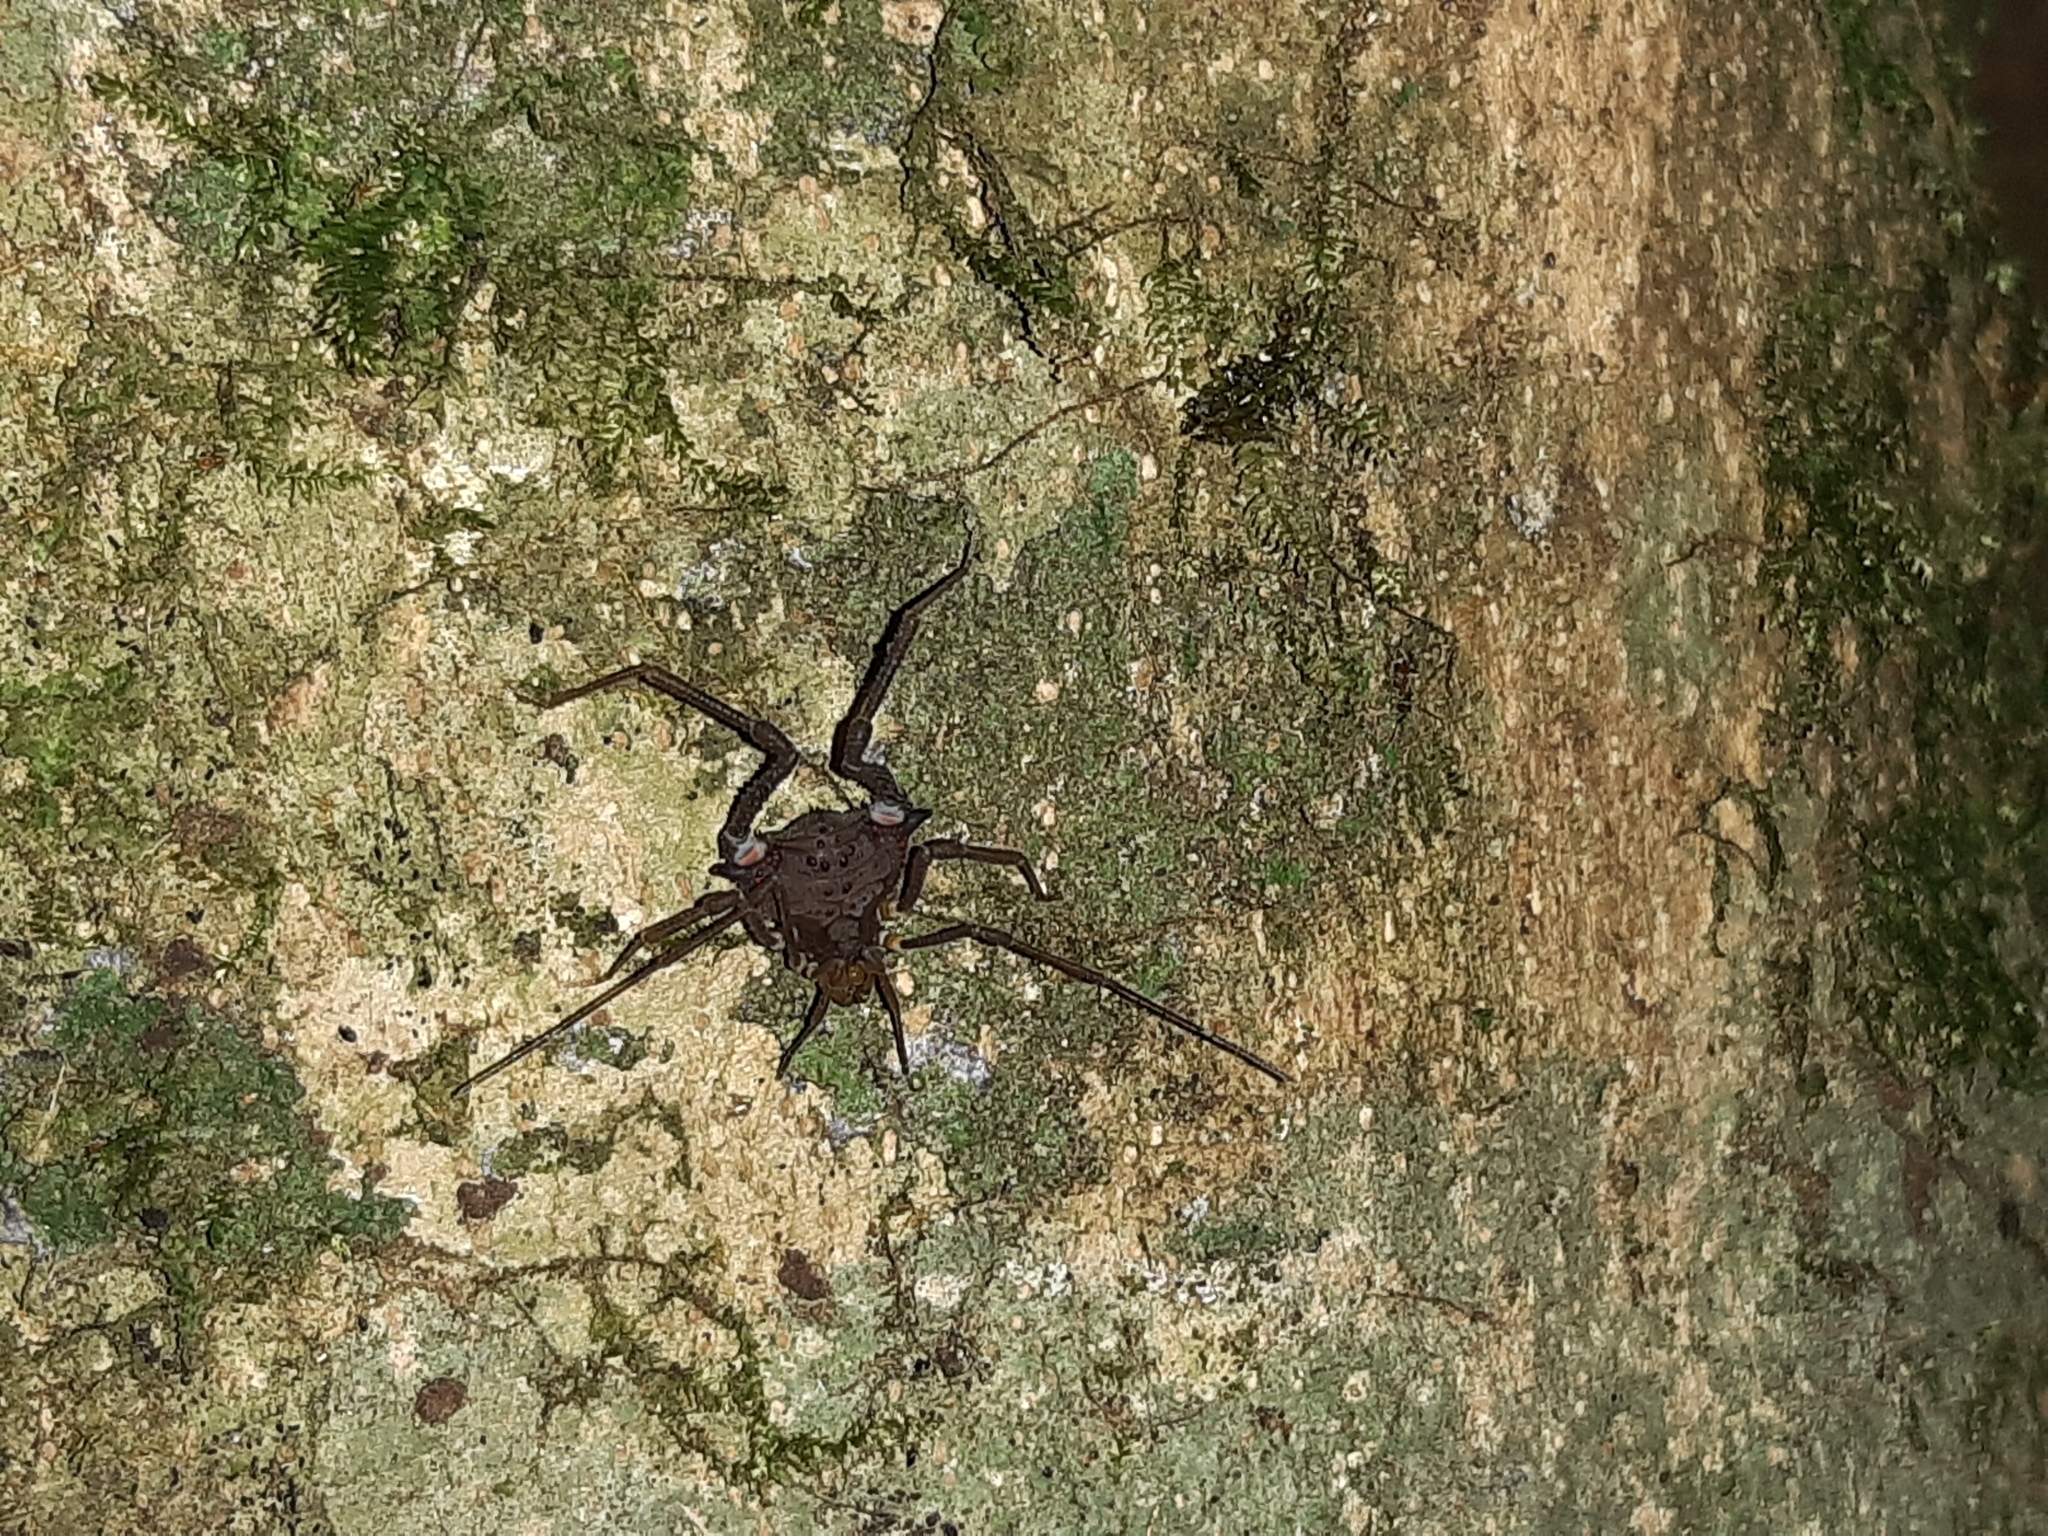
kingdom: Animalia
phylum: Arthropoda
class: Arachnida
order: Opiliones
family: Gonyleptidae
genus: Mischonyx
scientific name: Mischonyx squalidus
